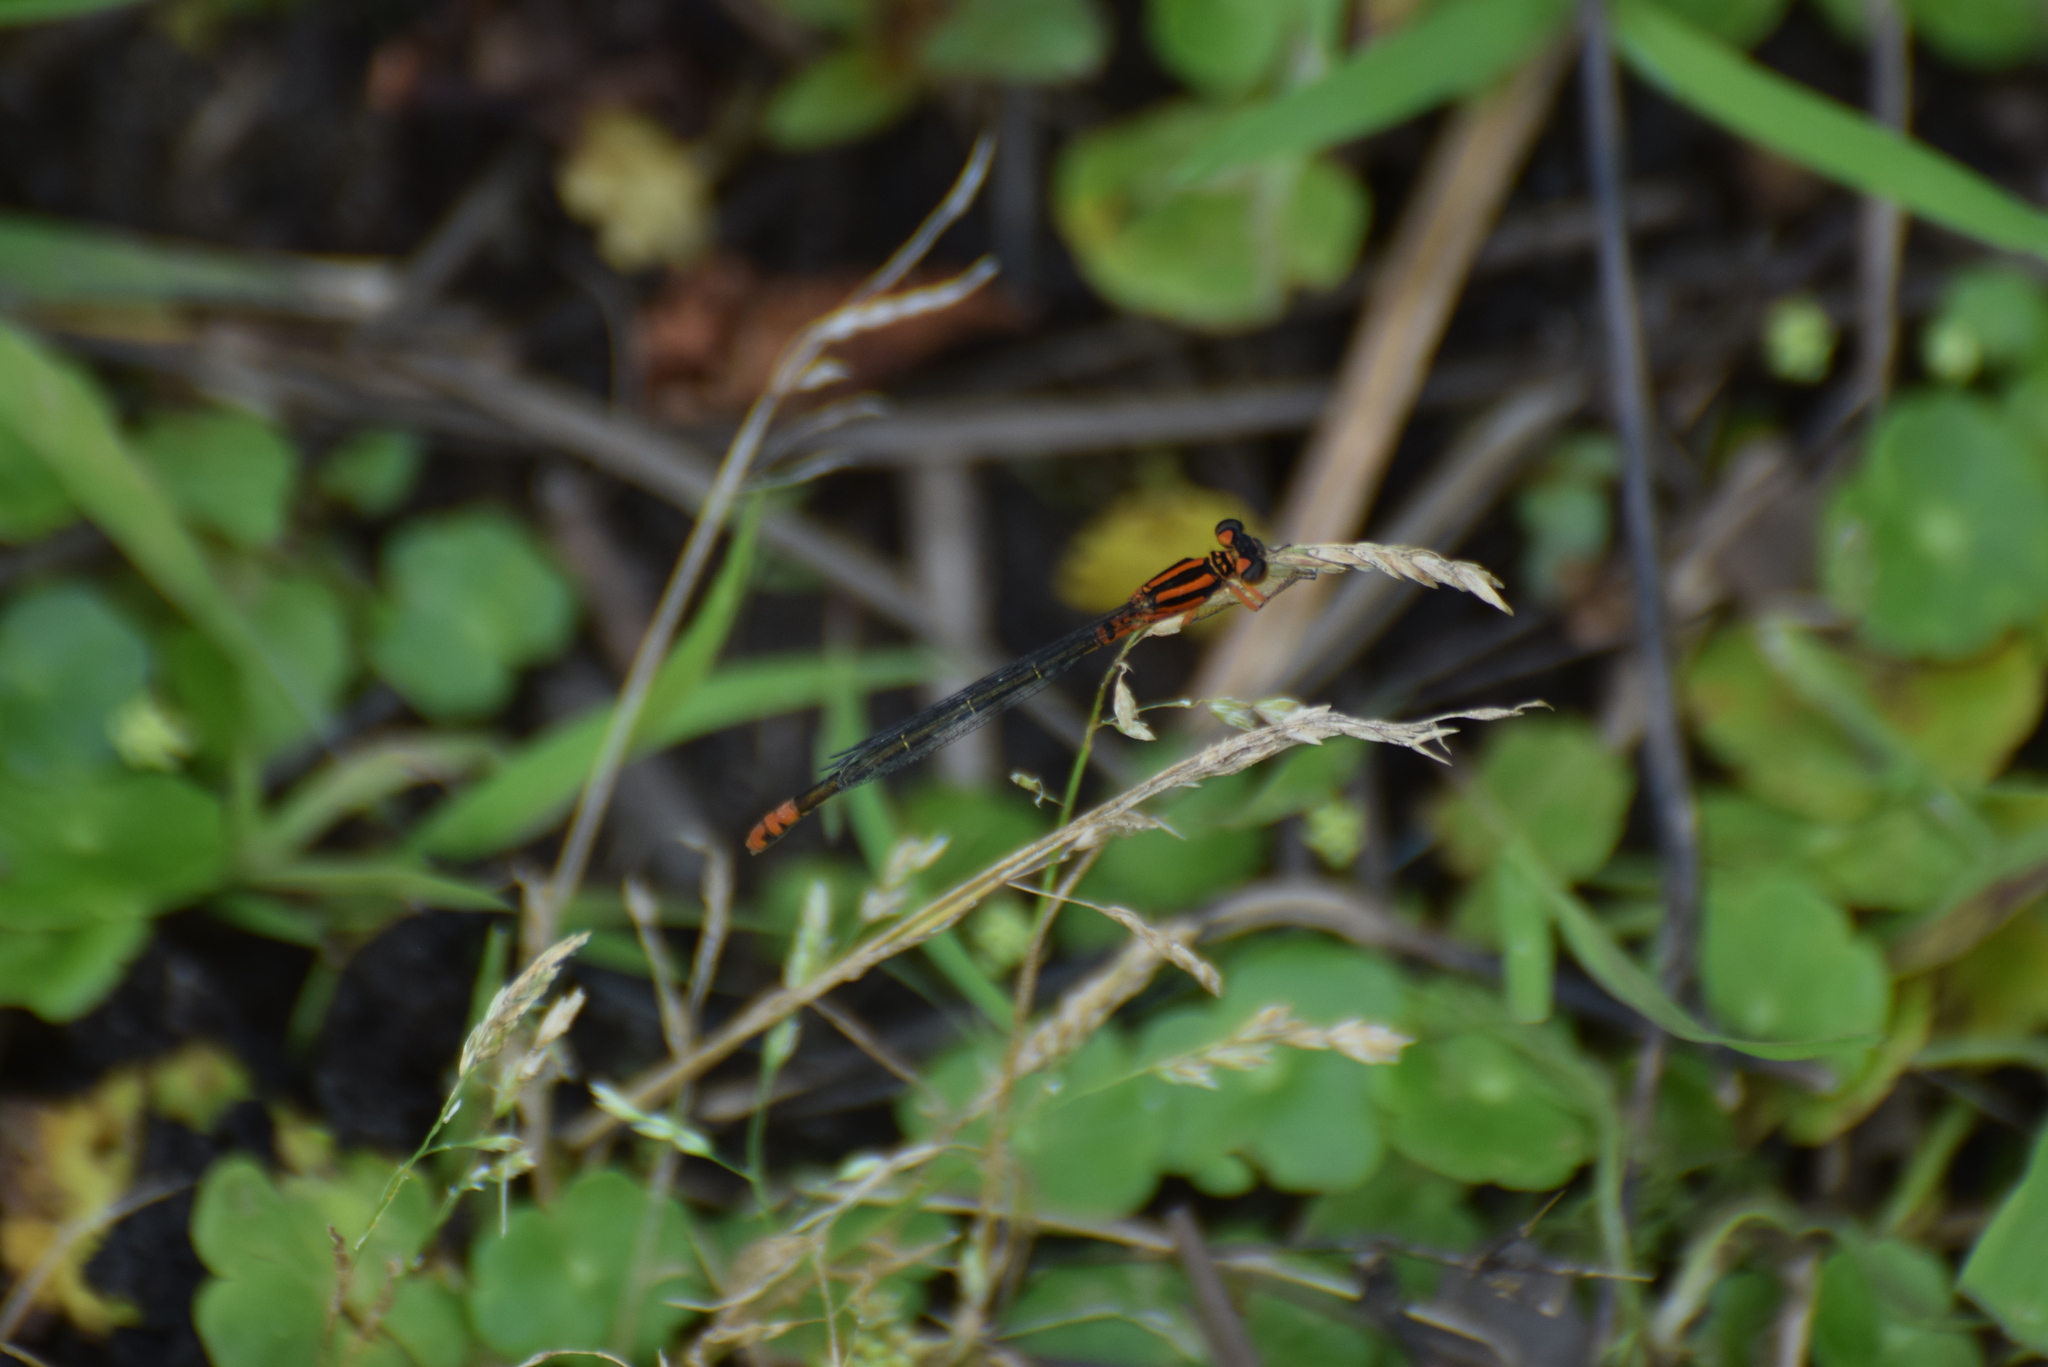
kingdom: Animalia
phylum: Arthropoda
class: Insecta
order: Odonata
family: Coenagrionidae
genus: Ischnura
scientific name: Ischnura kellicotti
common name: Lilypad forktail
